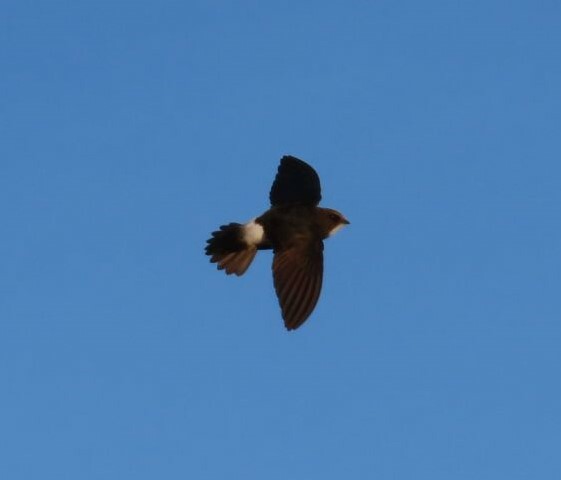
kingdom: Animalia
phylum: Chordata
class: Aves
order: Apodiformes
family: Apodidae
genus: Apus
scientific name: Apus affinis
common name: Little swift
